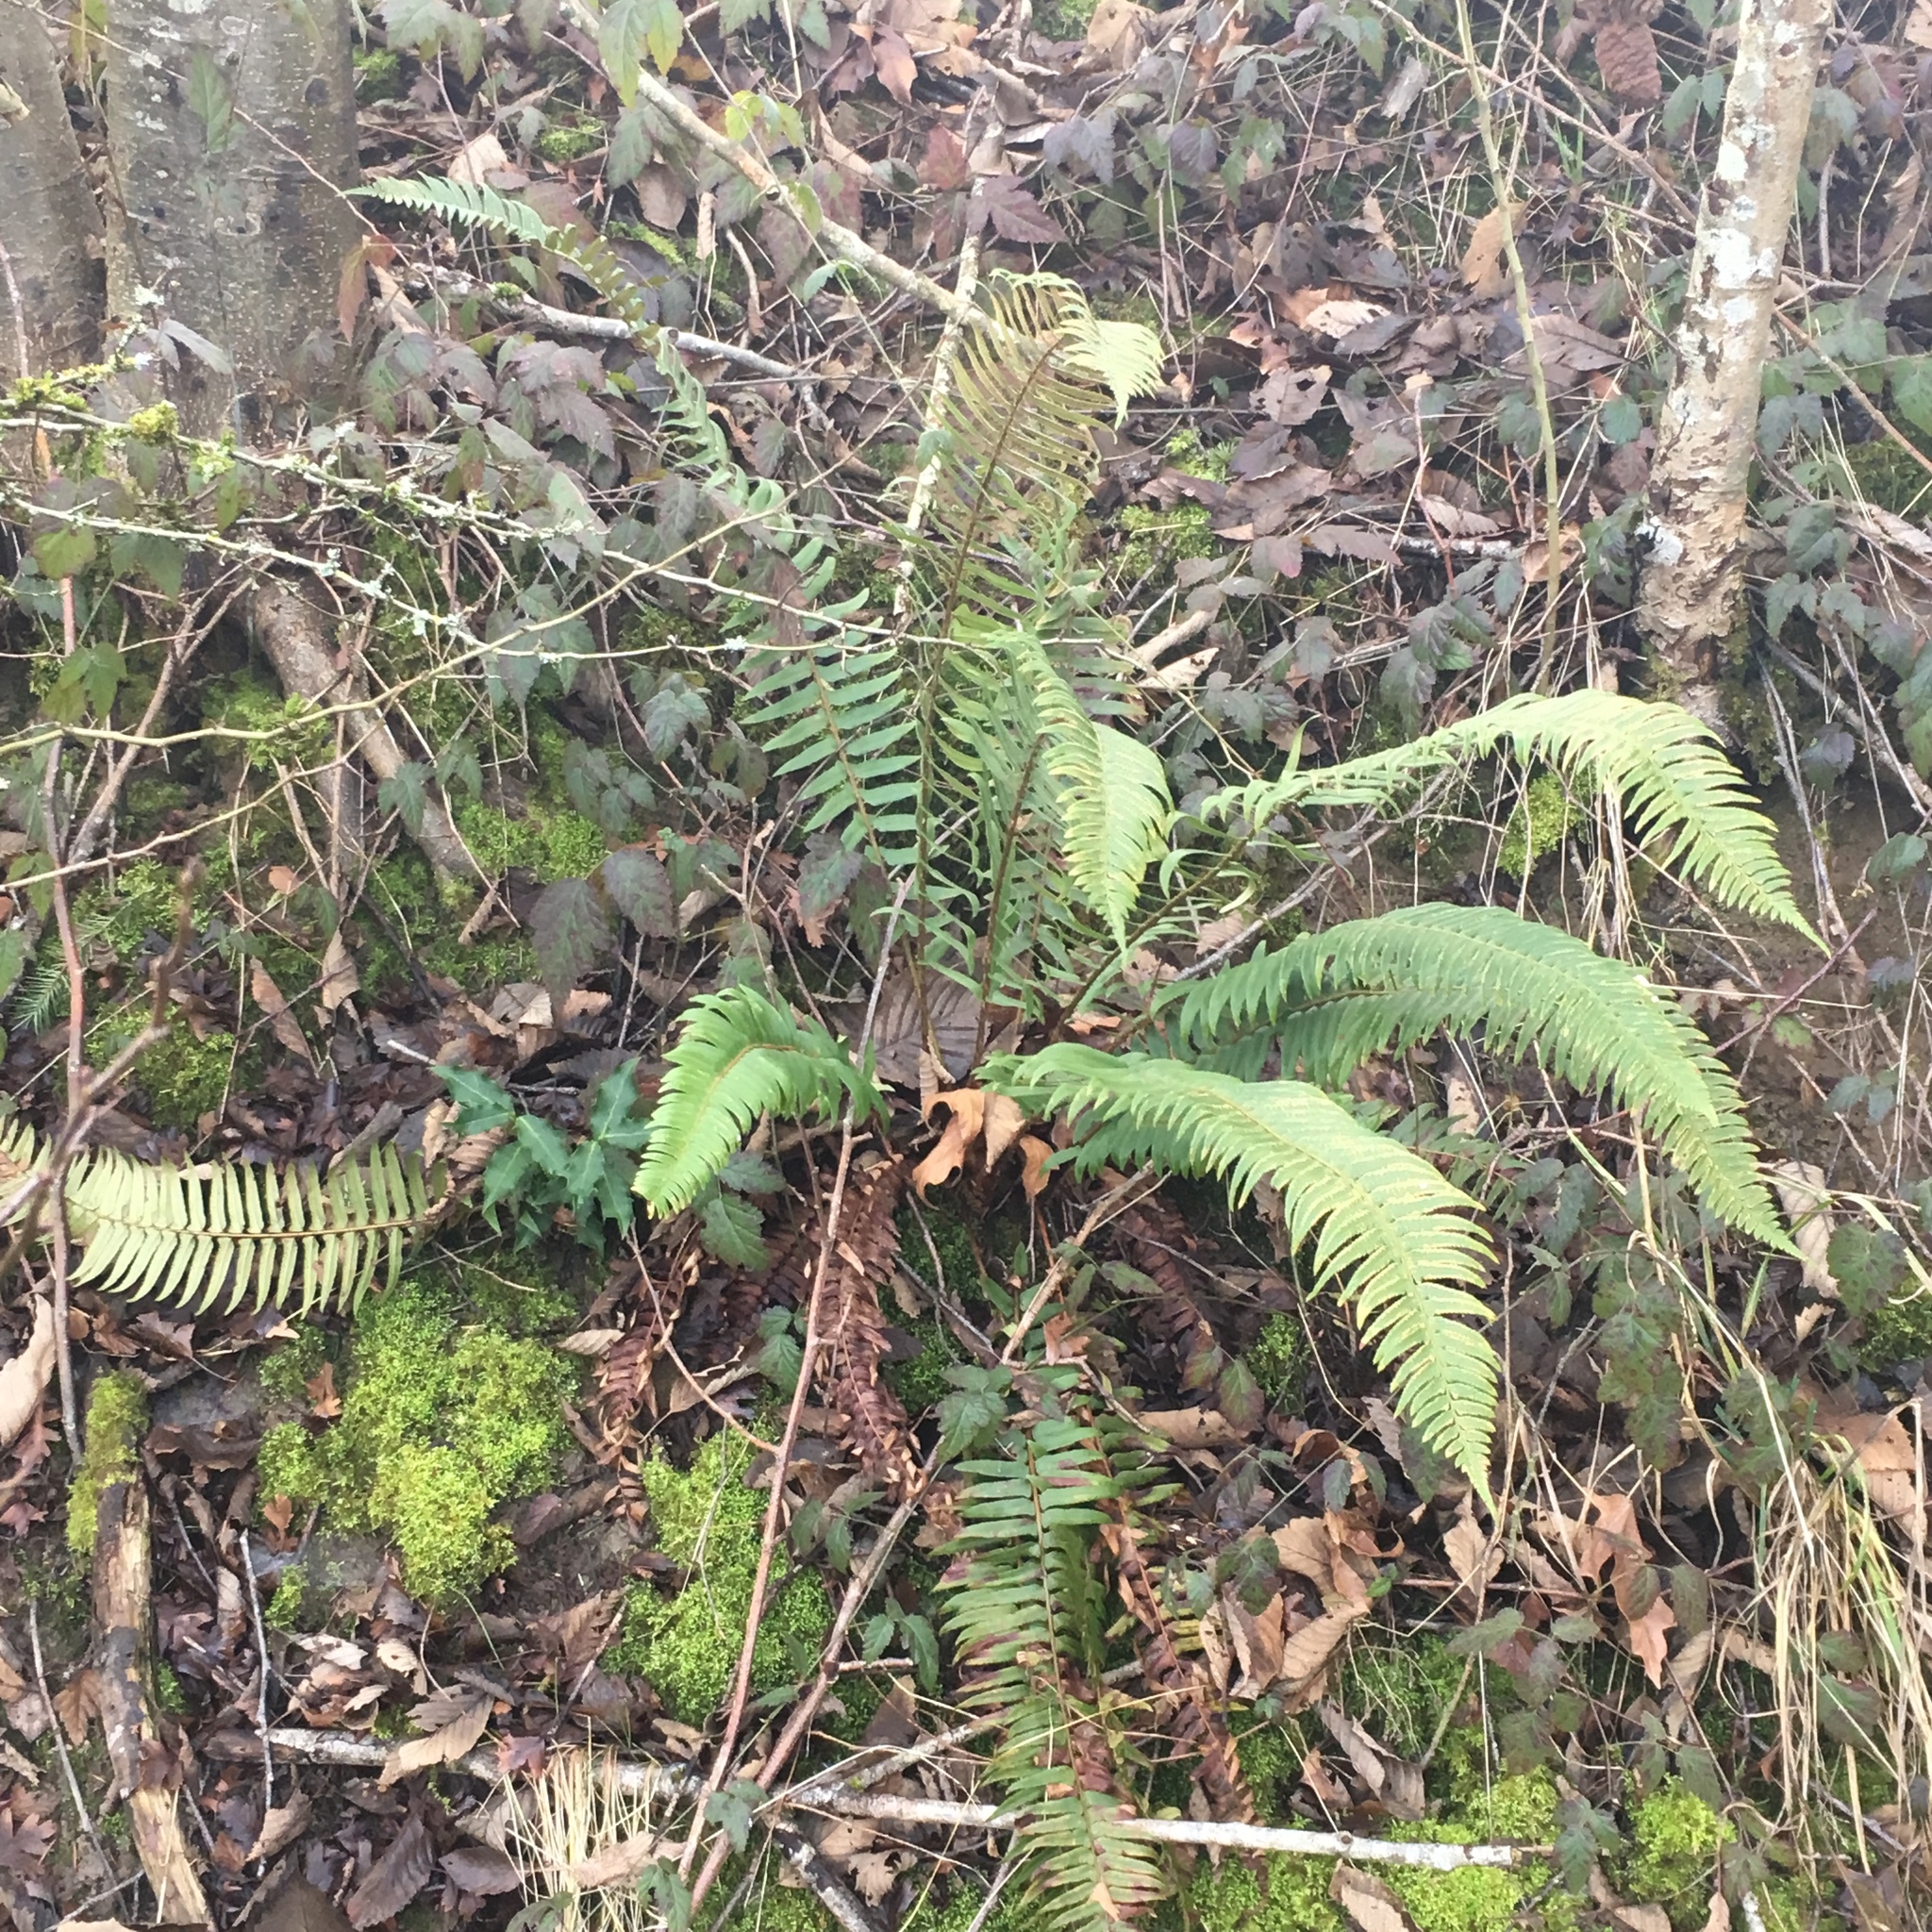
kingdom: Plantae
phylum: Tracheophyta
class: Polypodiopsida
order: Polypodiales
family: Dryopteridaceae
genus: Polystichum
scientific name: Polystichum munitum
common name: Western sword-fern
